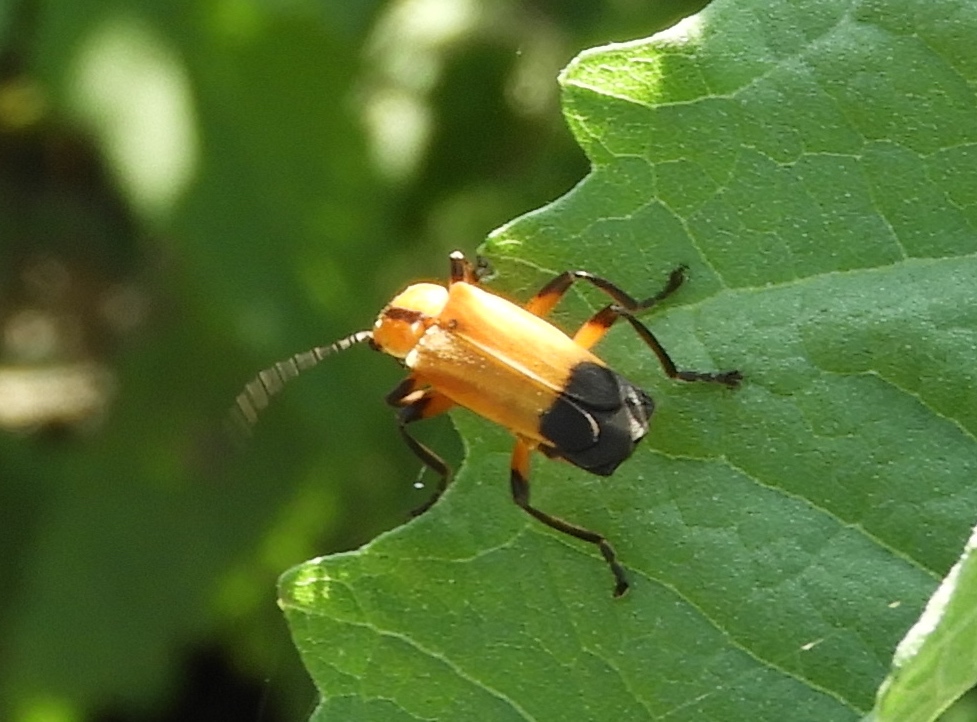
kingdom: Animalia
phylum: Arthropoda
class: Insecta
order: Coleoptera
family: Cantharidae
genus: Daiphron
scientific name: Daiphron proteum
